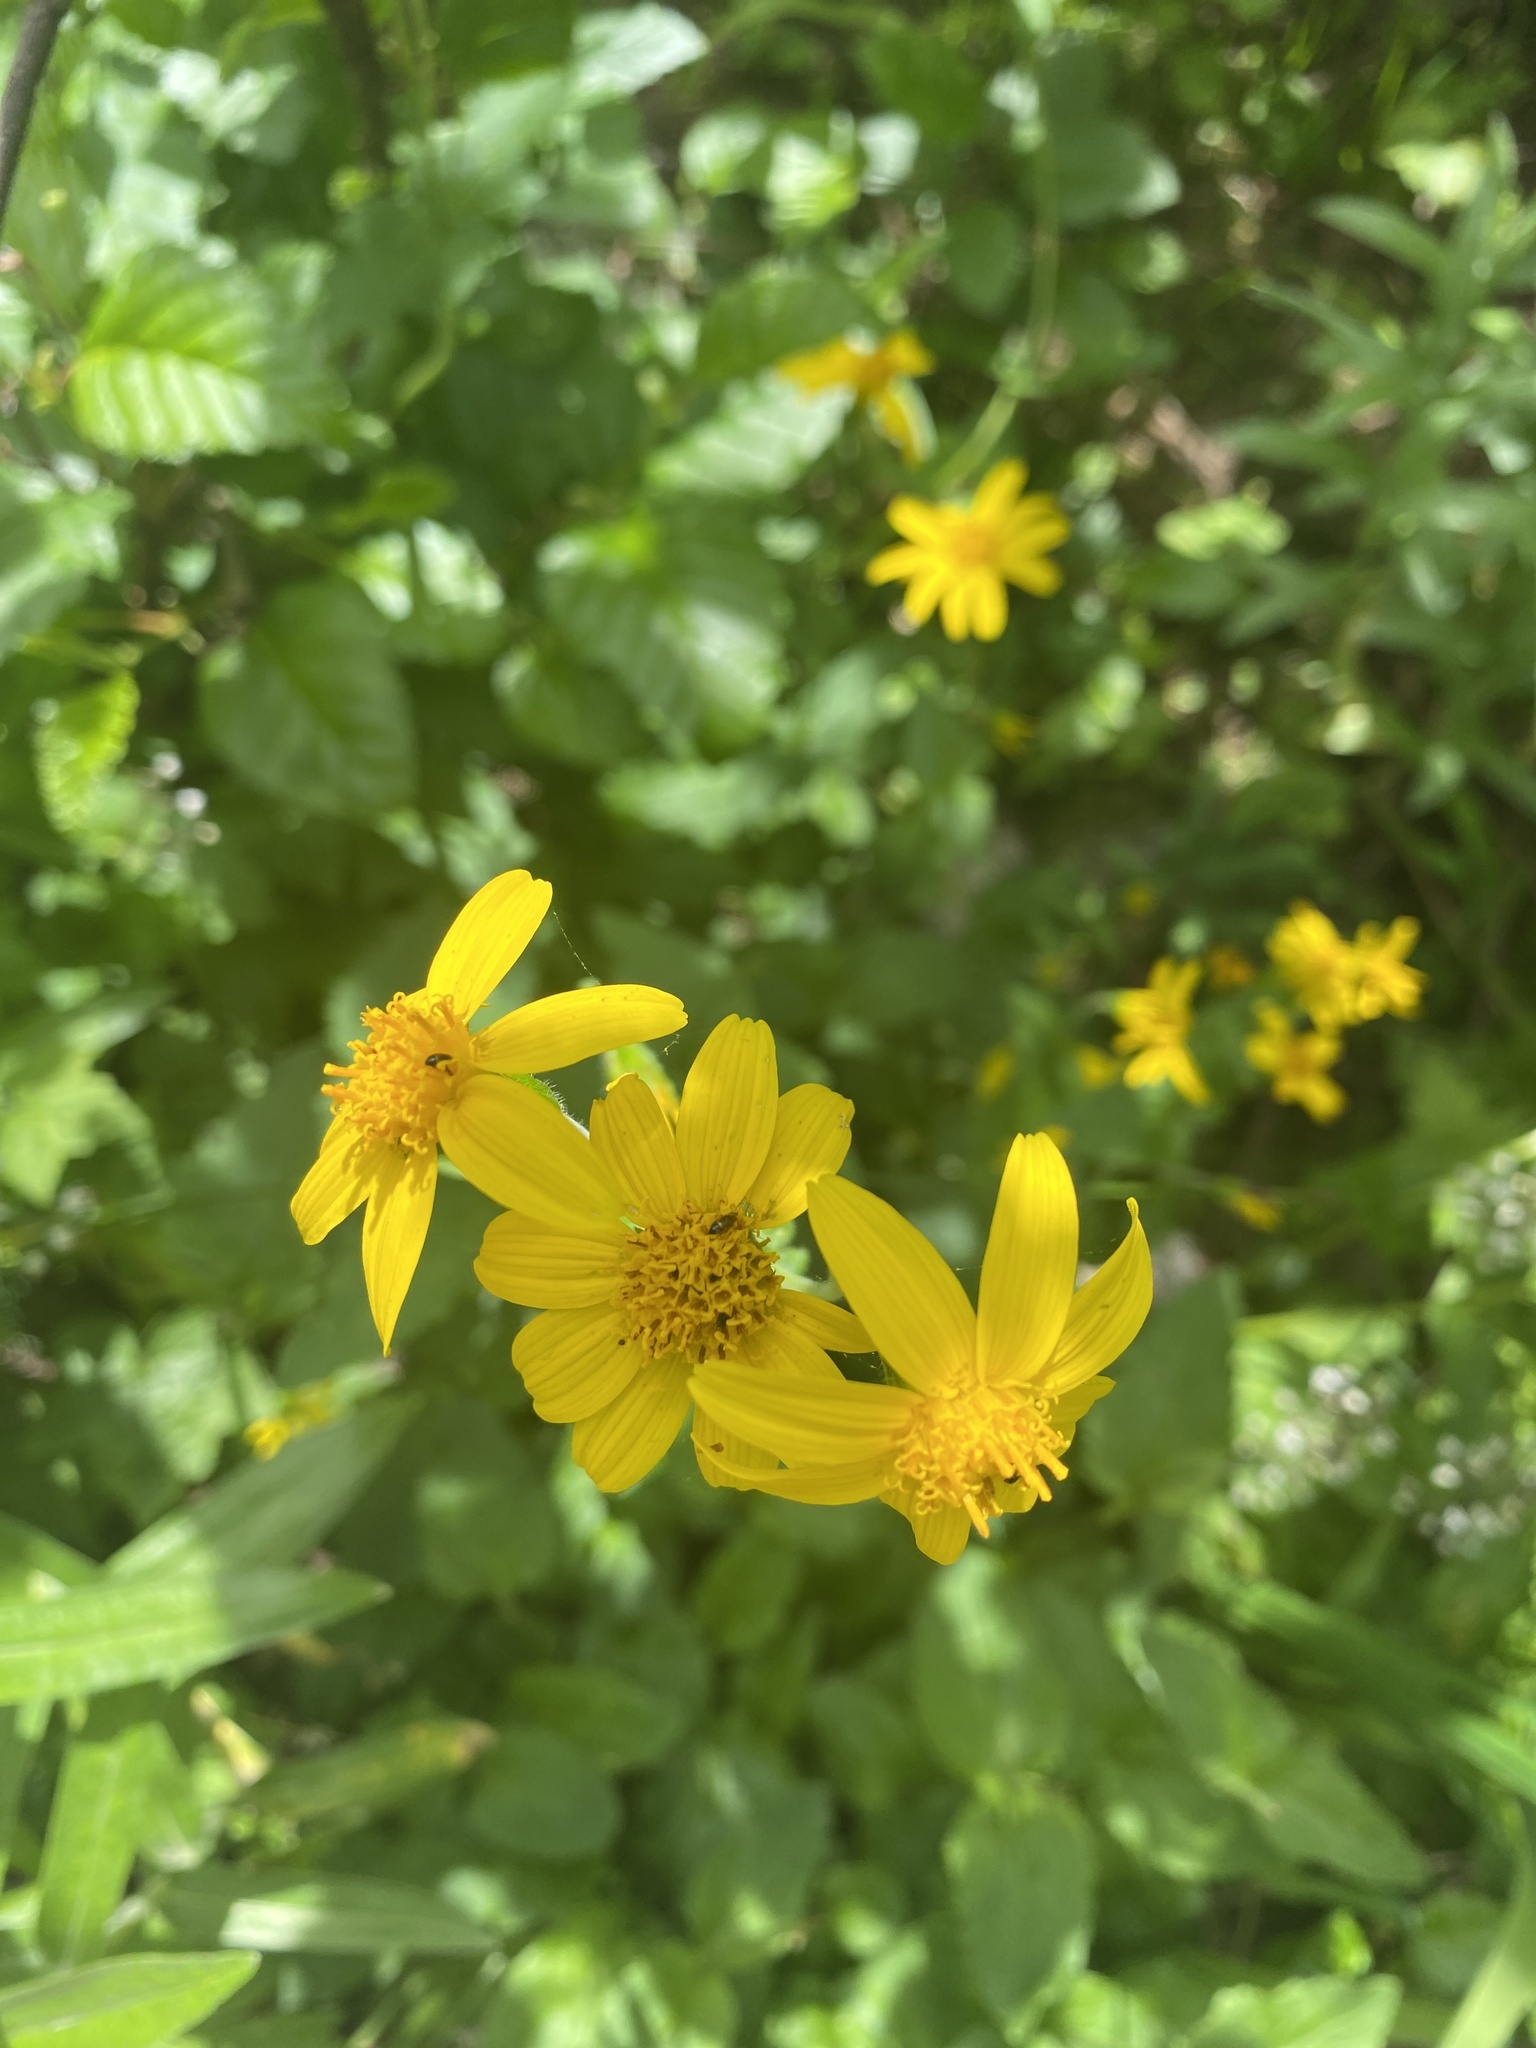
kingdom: Plantae
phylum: Tracheophyta
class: Magnoliopsida
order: Asterales
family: Asteraceae
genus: Arnica
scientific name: Arnica latifolia
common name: Arnica
